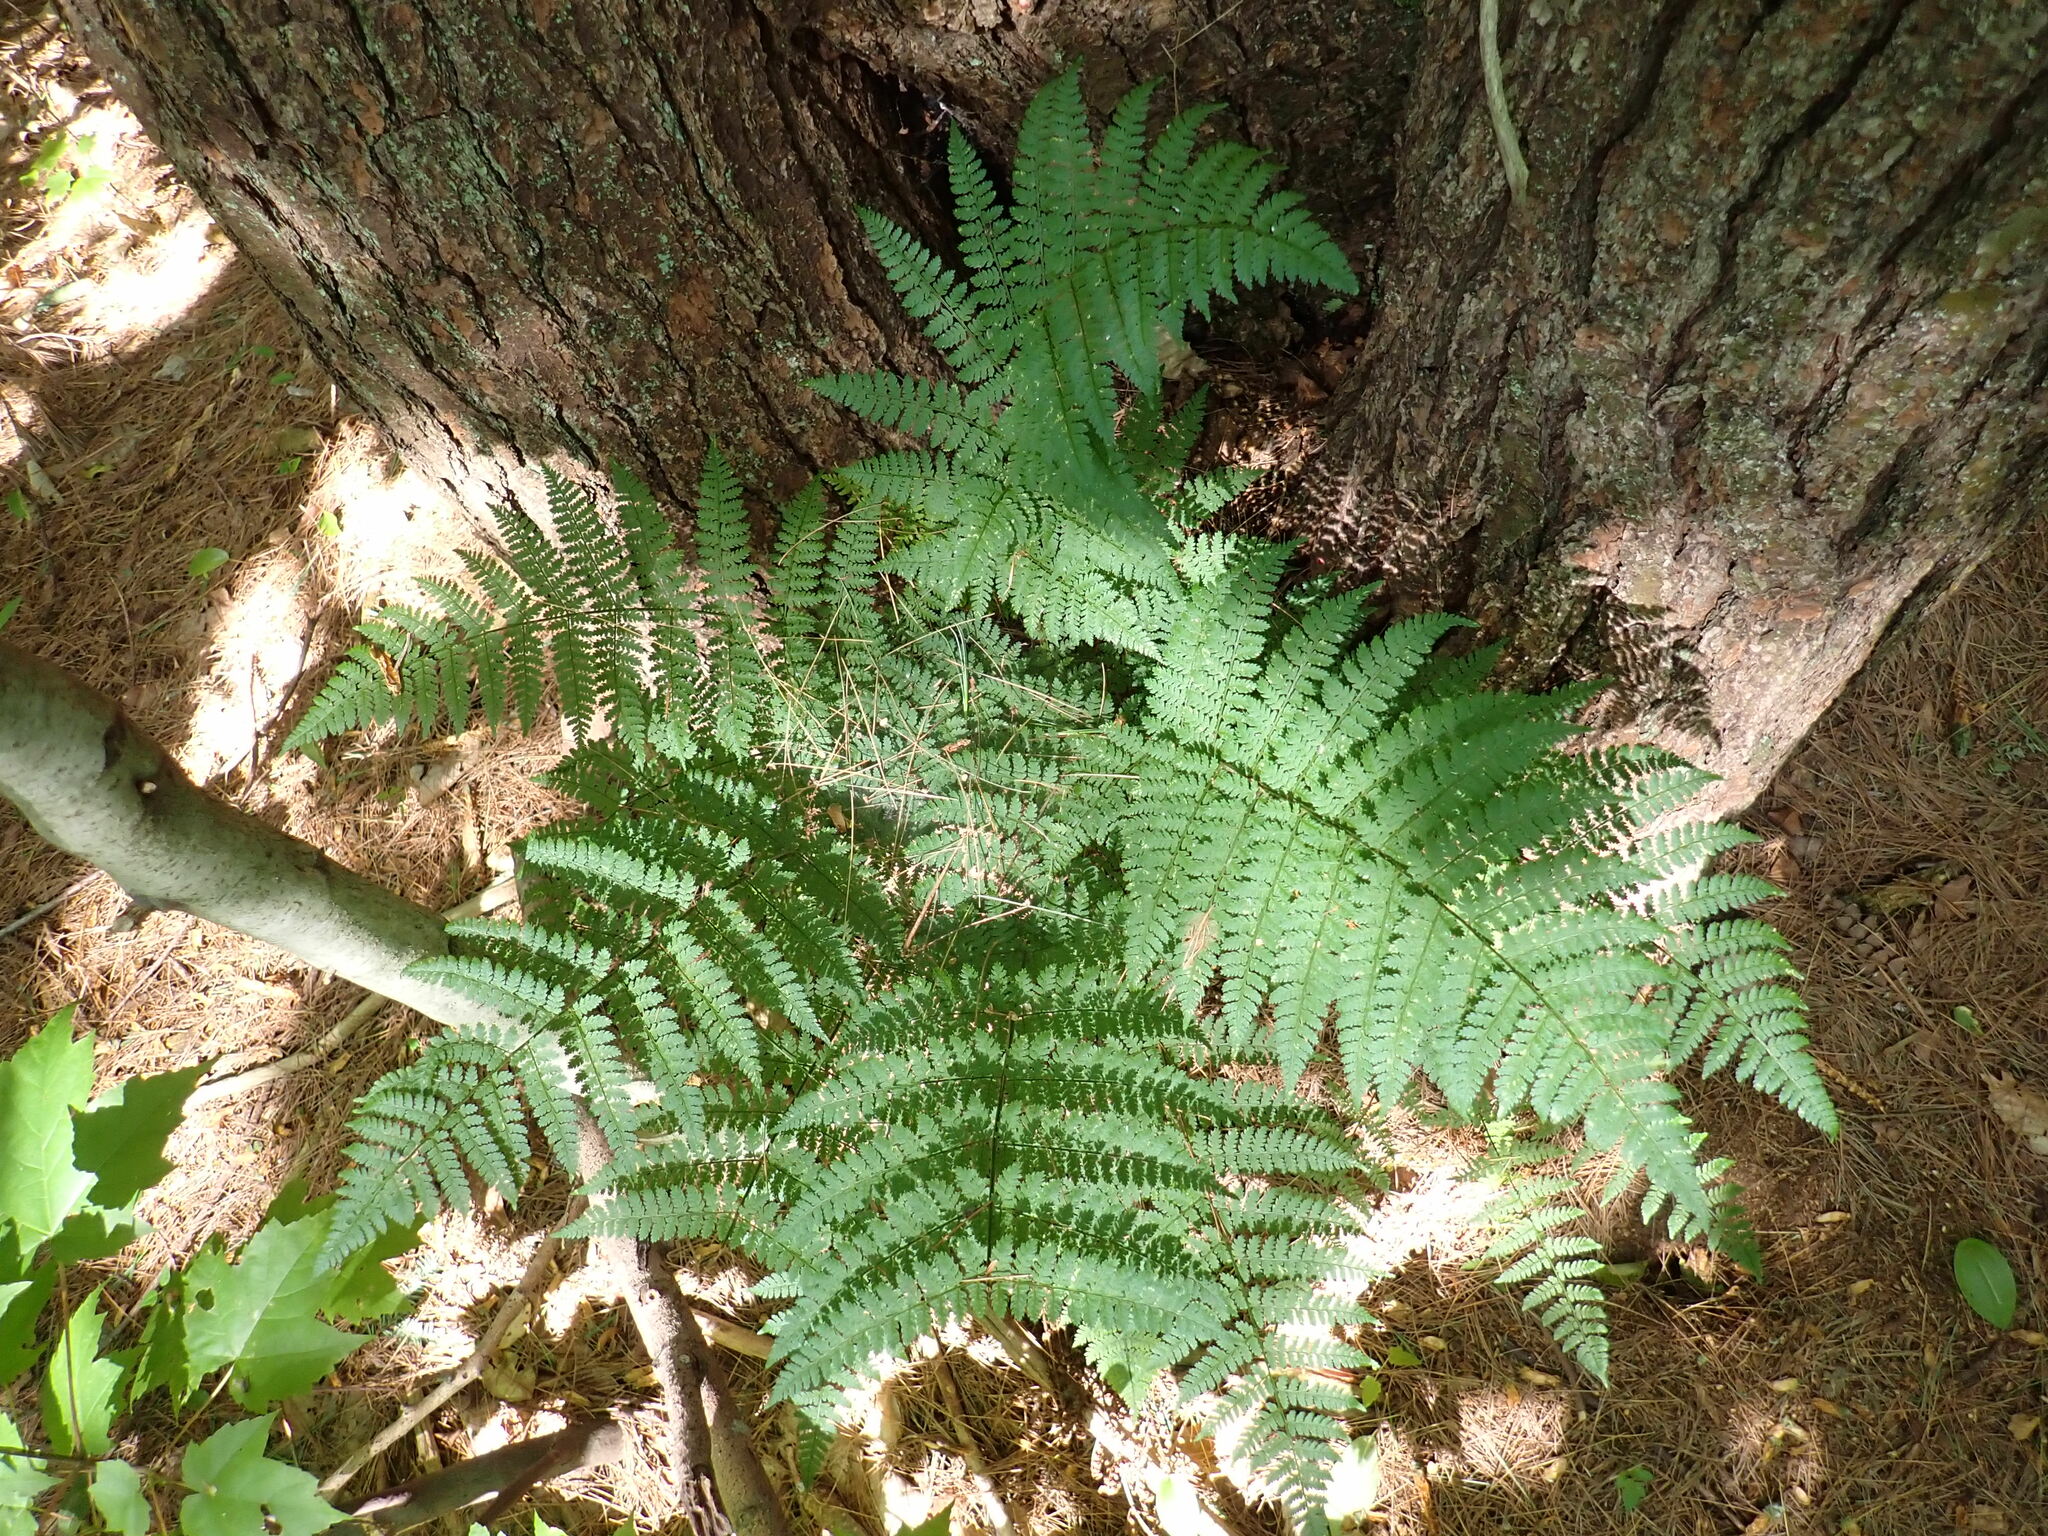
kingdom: Plantae
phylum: Tracheophyta
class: Polypodiopsida
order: Polypodiales
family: Dryopteridaceae
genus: Dryopteris
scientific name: Dryopteris intermedia
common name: Evergreen wood fern
